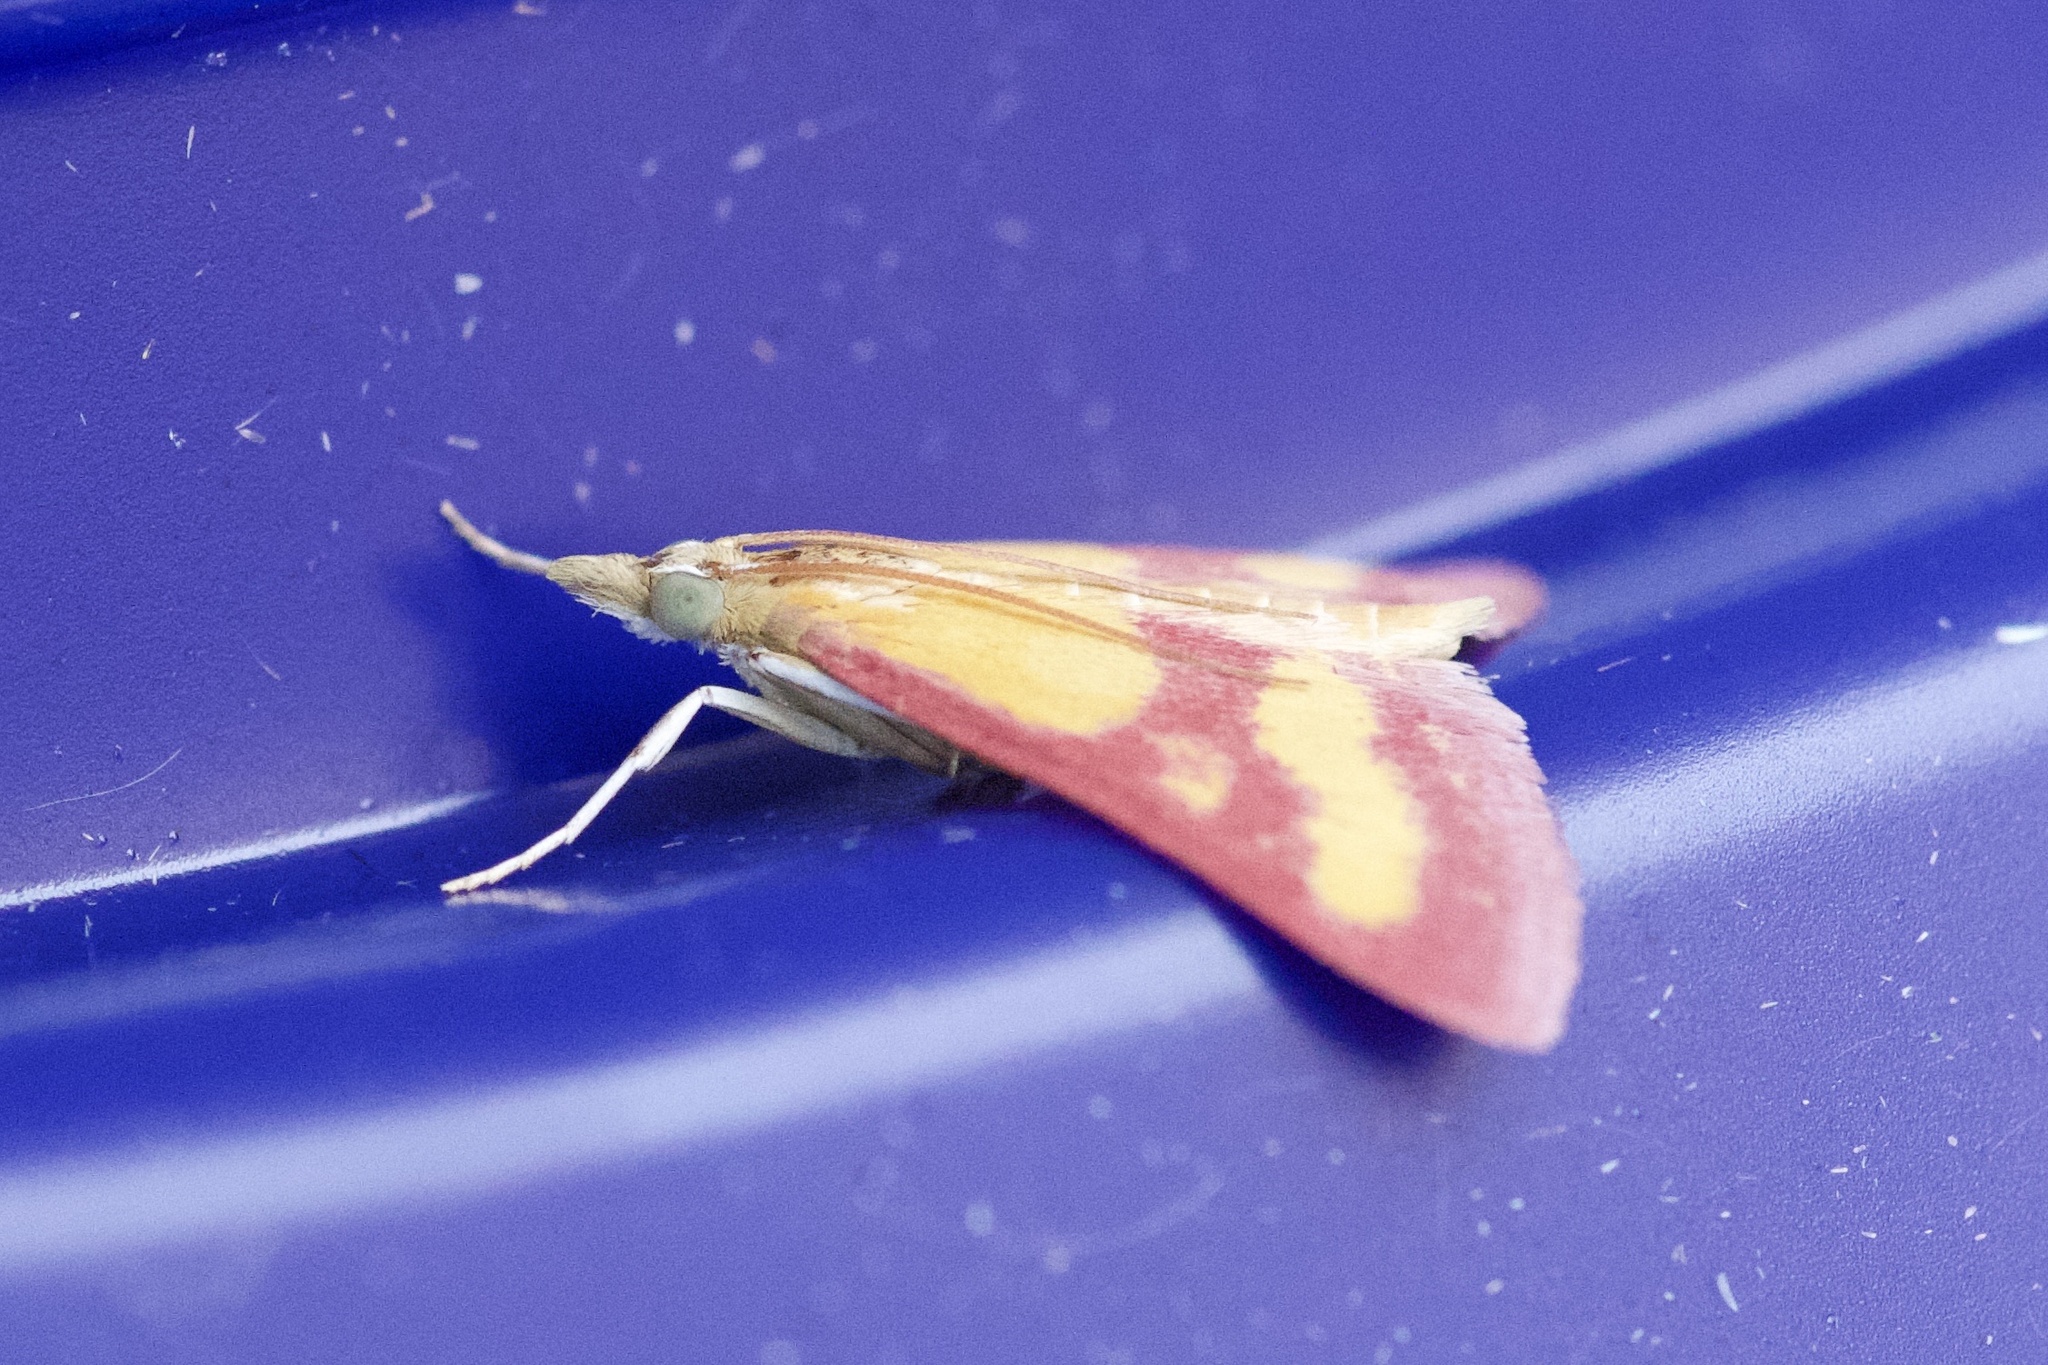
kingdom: Animalia
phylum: Arthropoda
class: Insecta
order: Lepidoptera
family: Crambidae
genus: Pyrausta
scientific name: Pyrausta laticlavia
